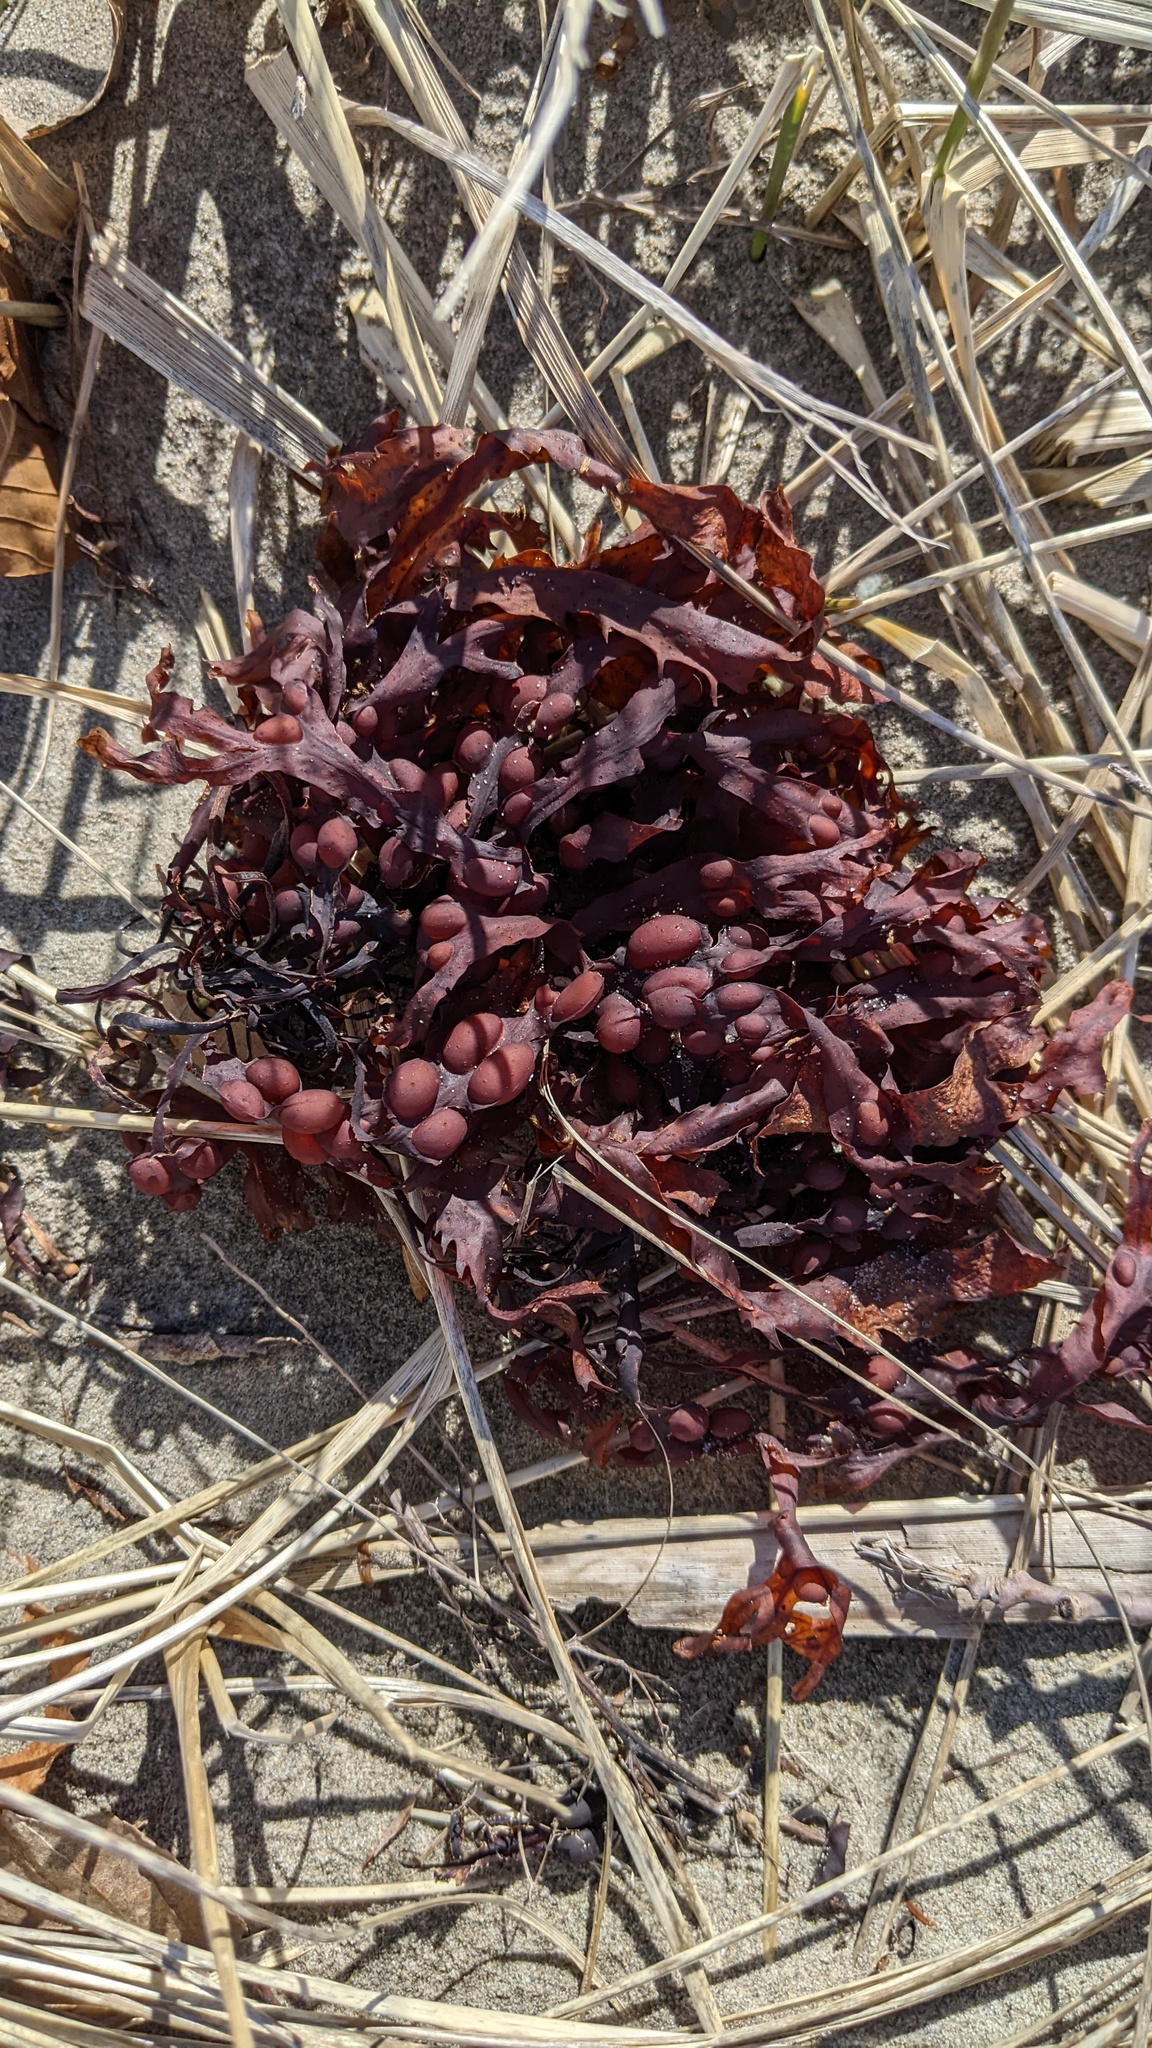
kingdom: Chromista
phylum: Ochrophyta
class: Phaeophyceae
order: Fucales
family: Fucaceae
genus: Fucus
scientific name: Fucus vesiculosus
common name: Bladder wrack
